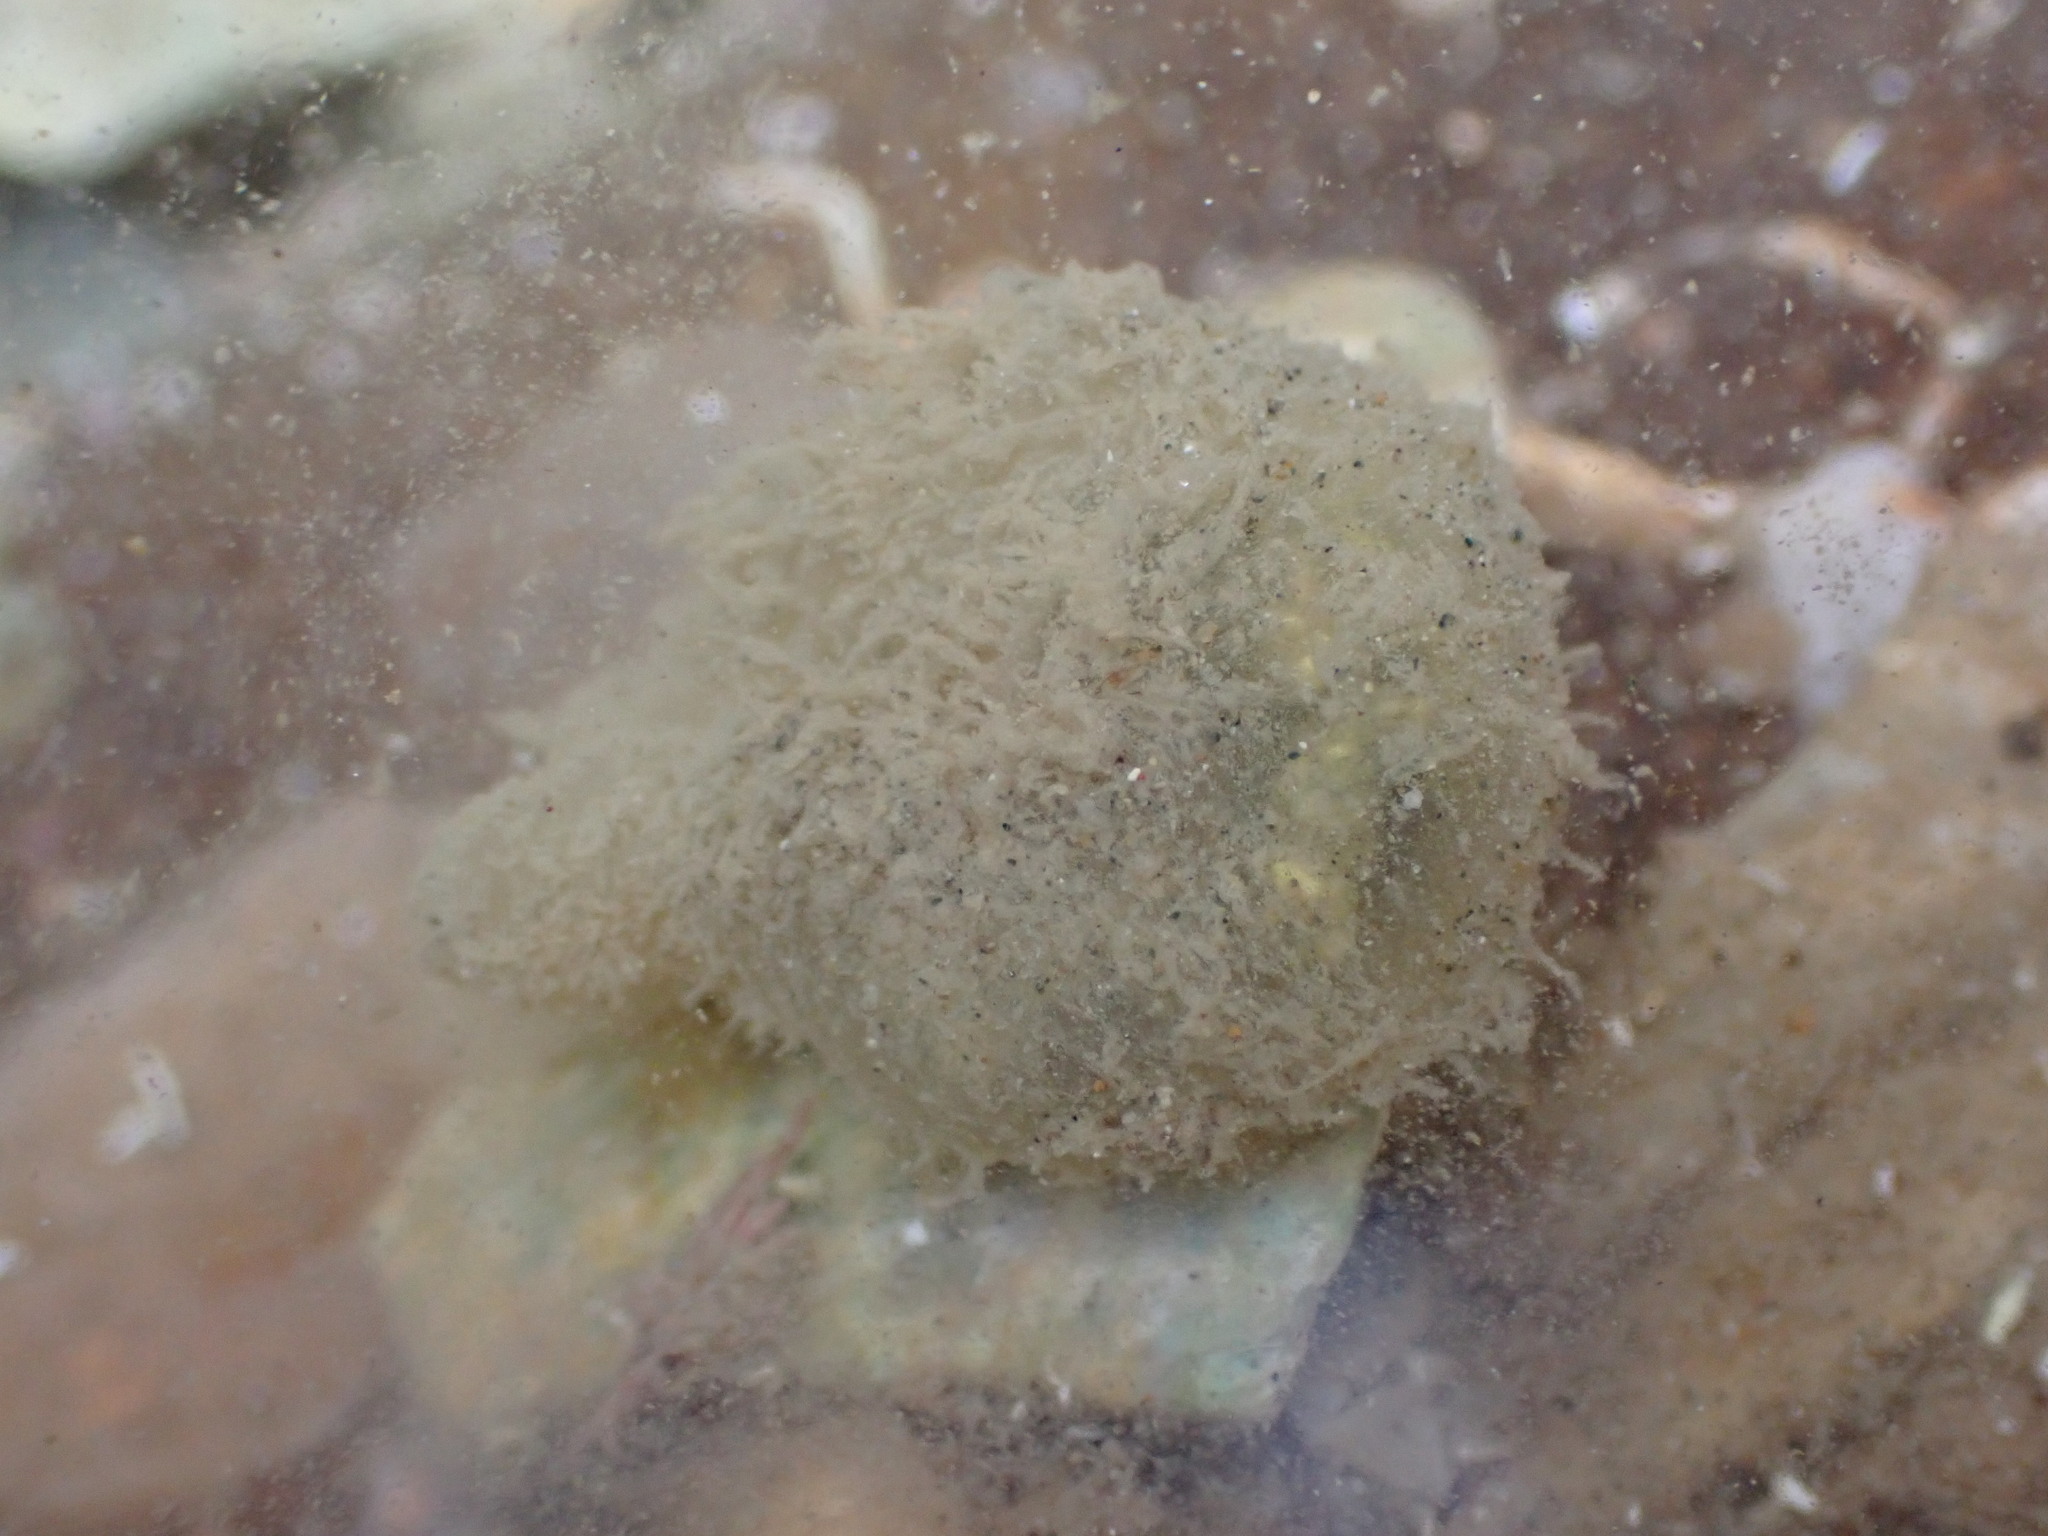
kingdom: Animalia
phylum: Annelida
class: Polychaeta
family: Flabelligeridae
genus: Flabelligera
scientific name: Flabelligera bicolor
